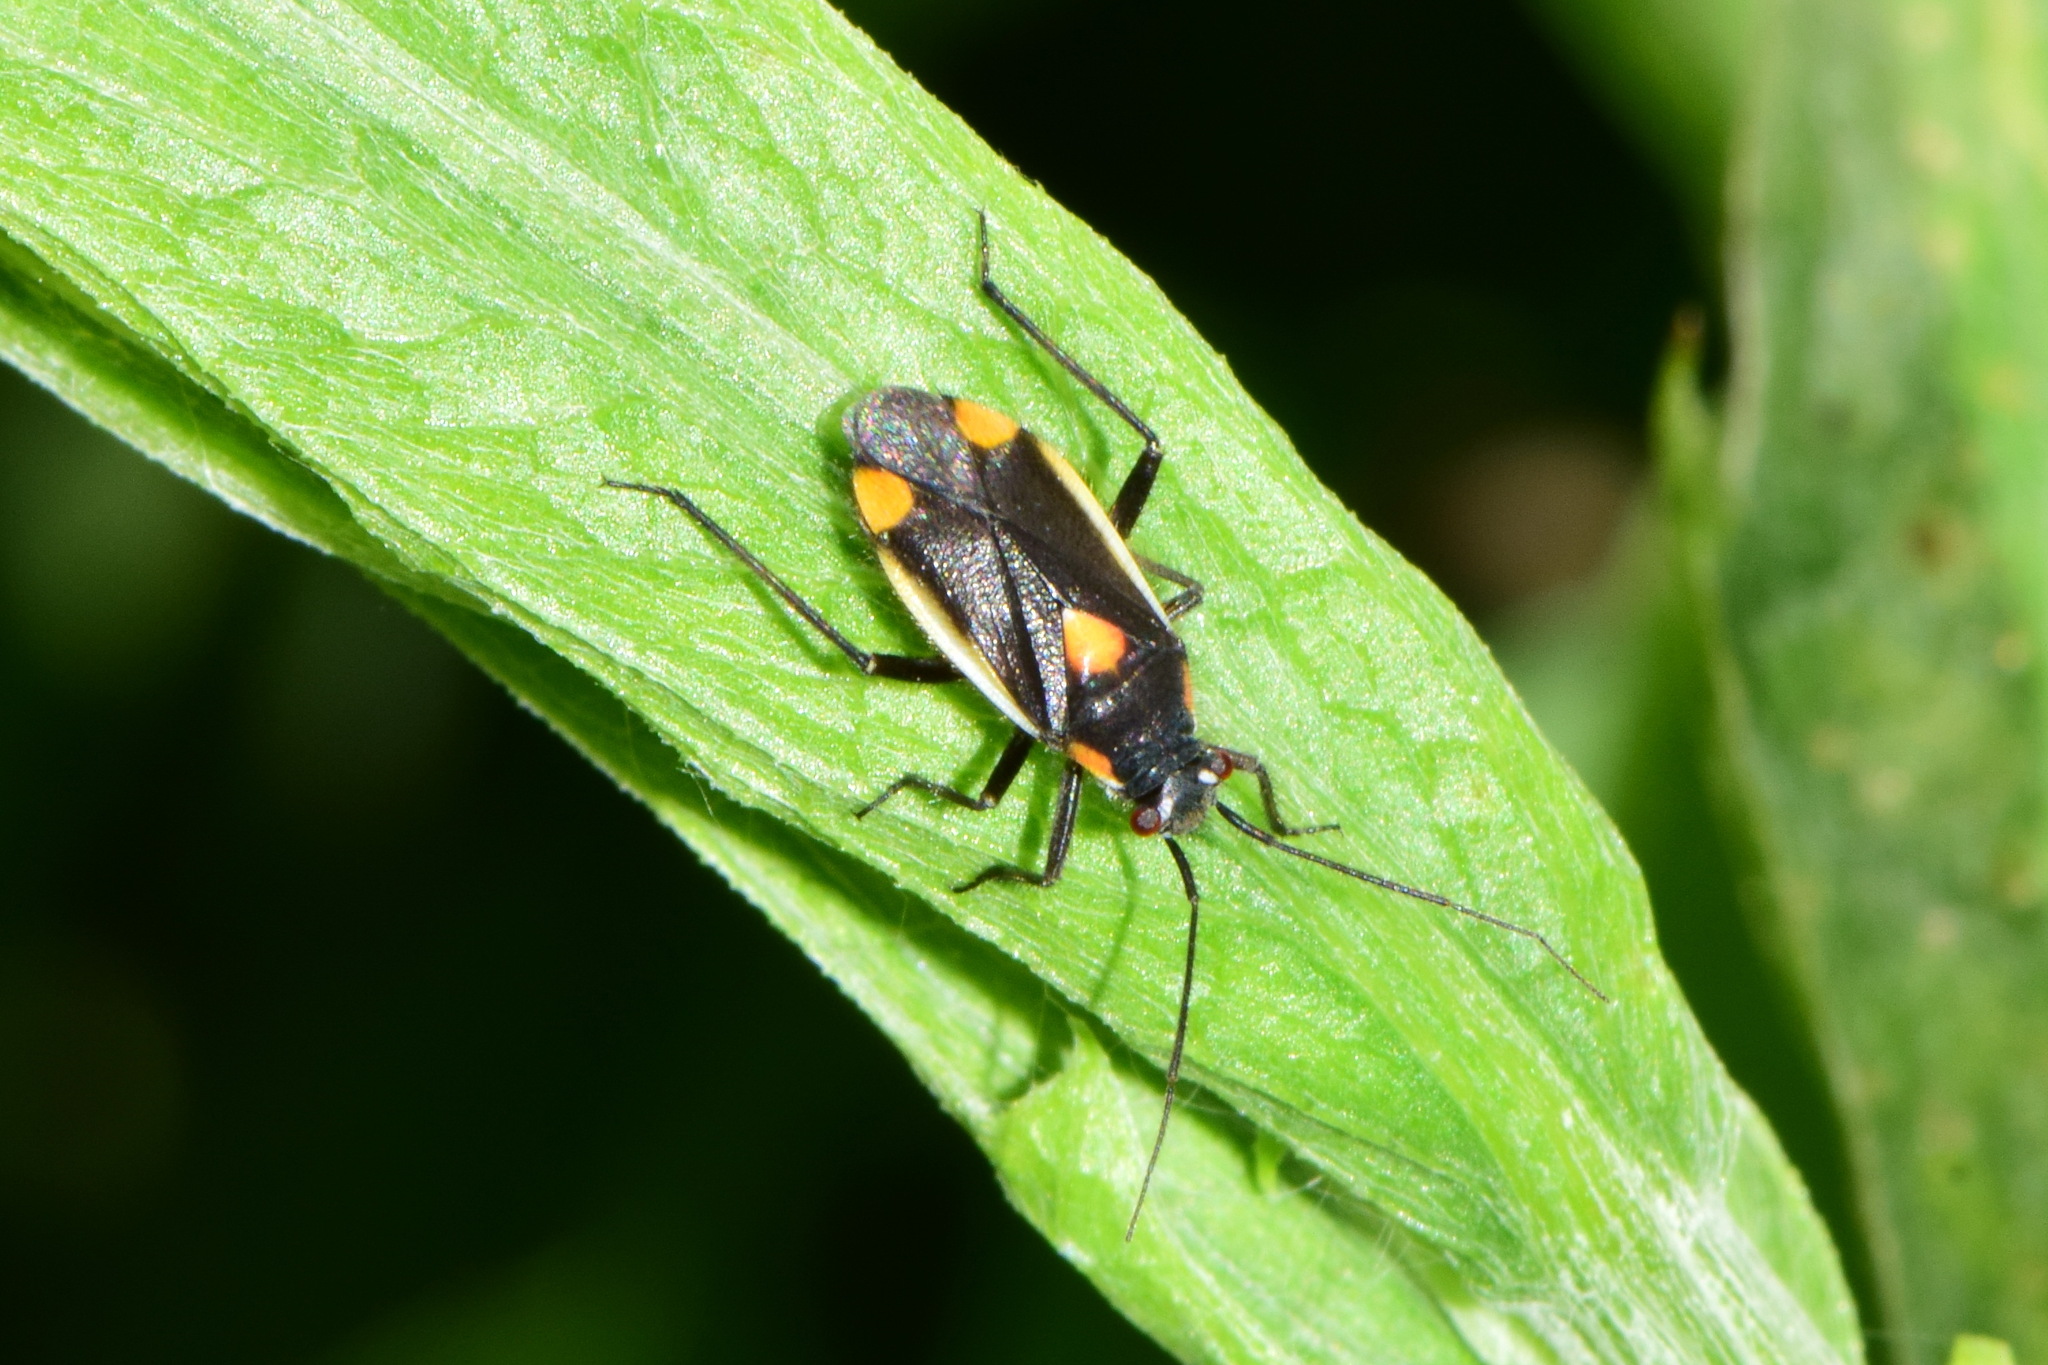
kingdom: Animalia
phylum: Arthropoda
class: Insecta
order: Hemiptera
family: Miridae
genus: Capsodes
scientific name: Capsodes gothicus
